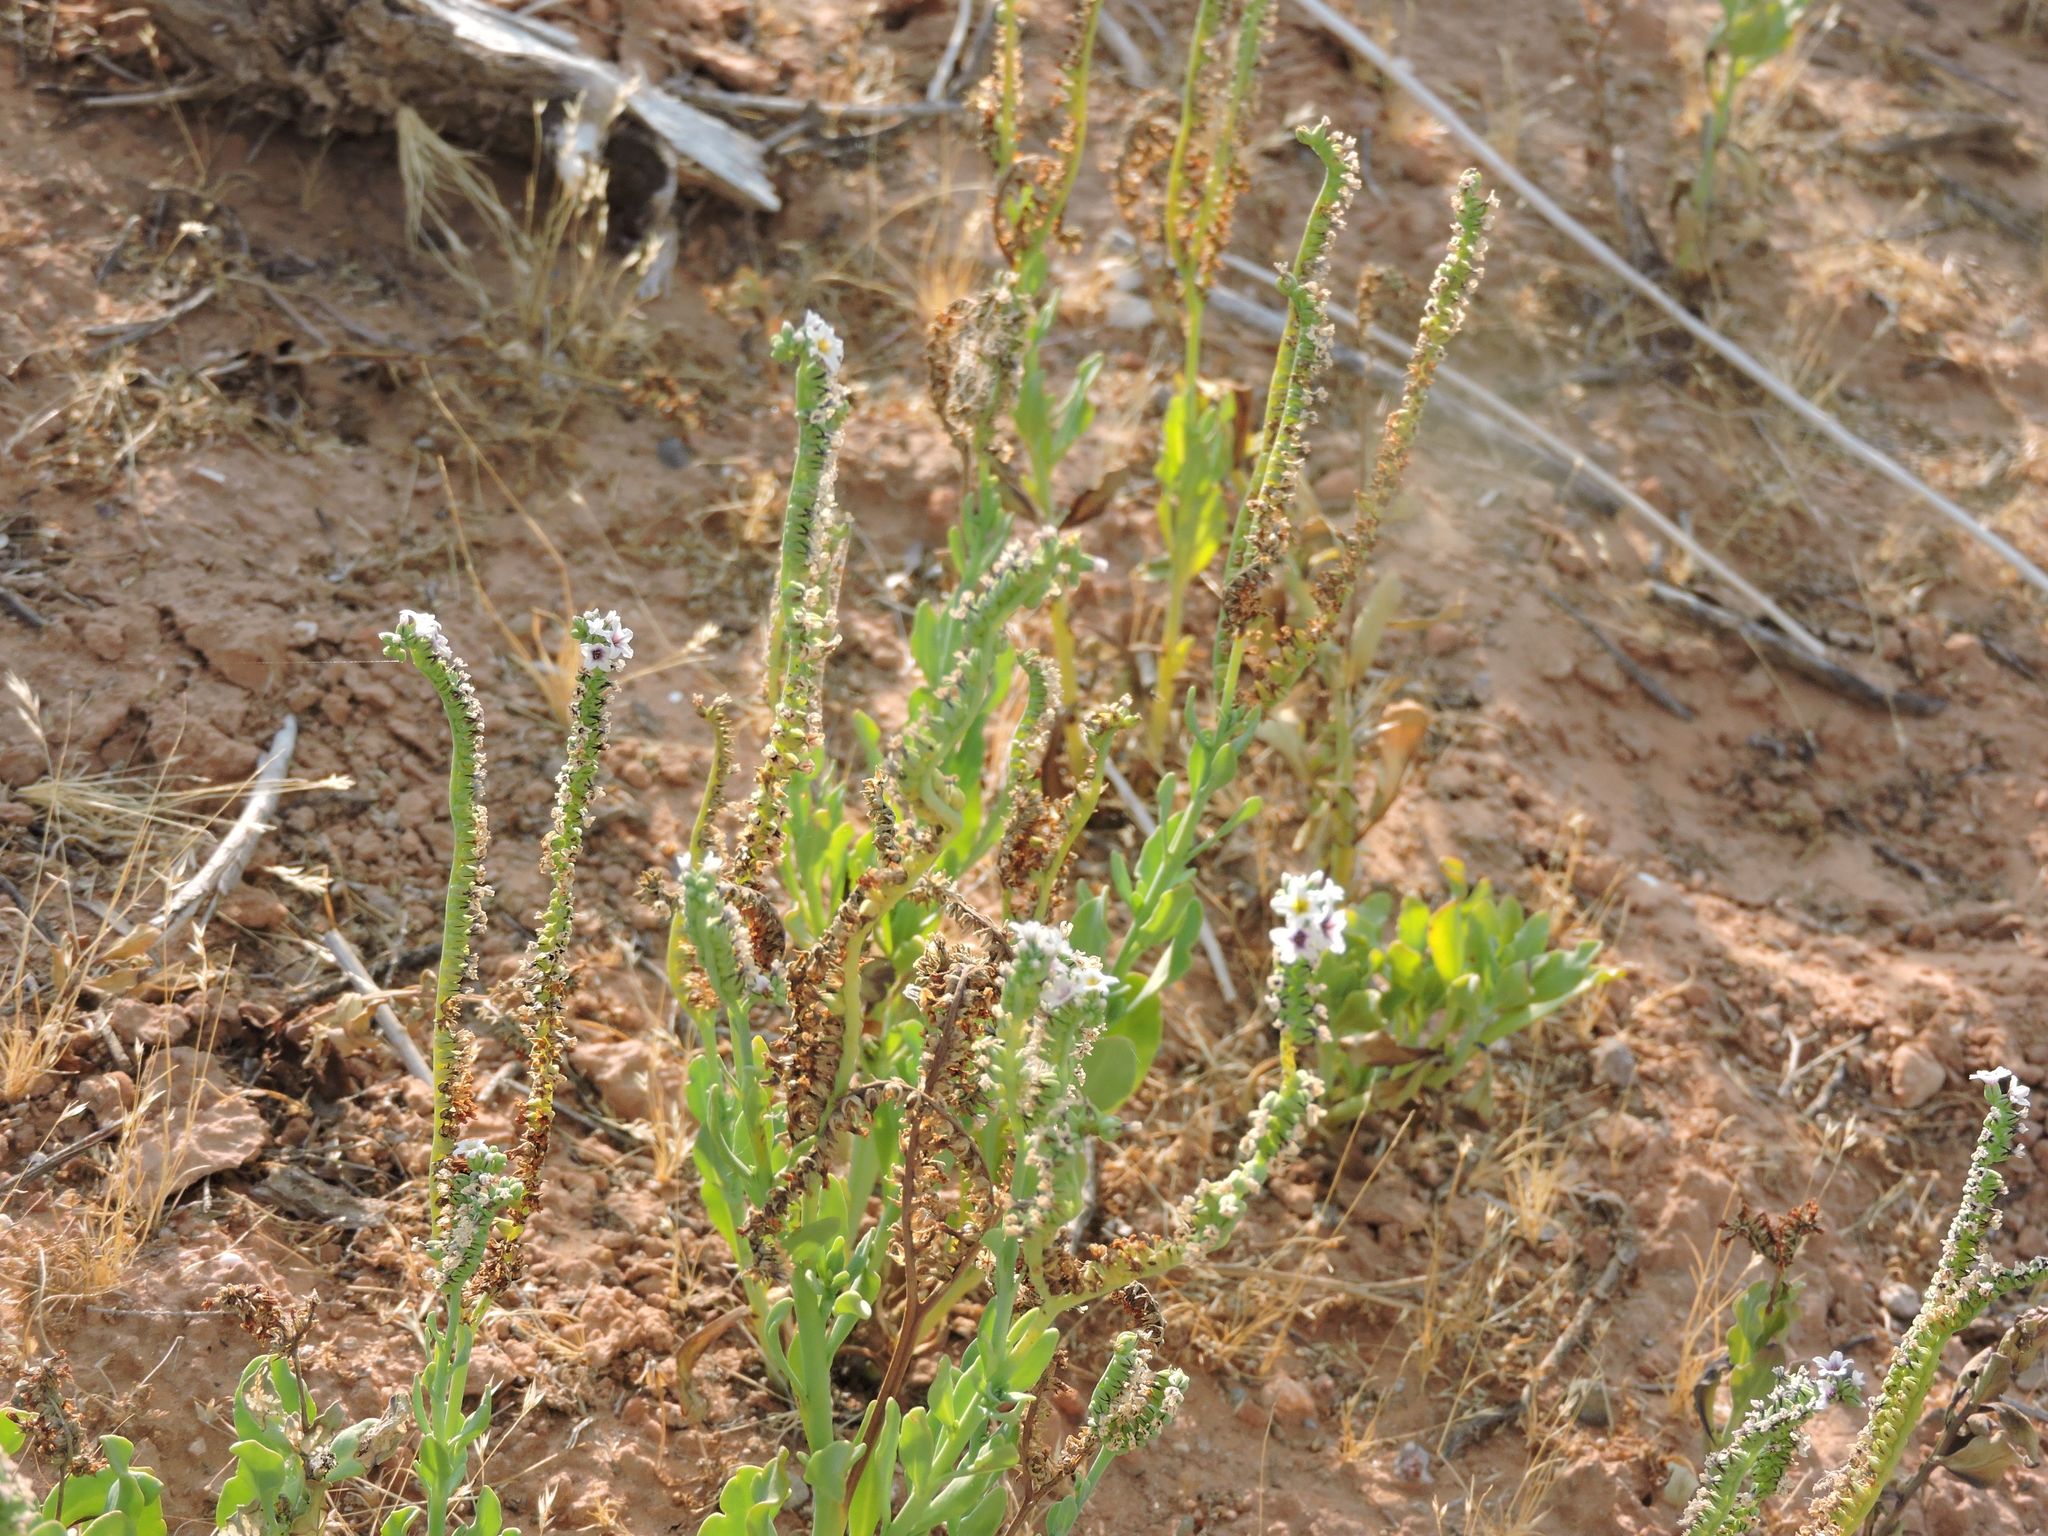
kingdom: Plantae
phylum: Tracheophyta
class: Magnoliopsida
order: Boraginales
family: Heliotropiaceae
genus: Heliotropium
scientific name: Heliotropium curassavicum
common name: Seaside heliotrope
